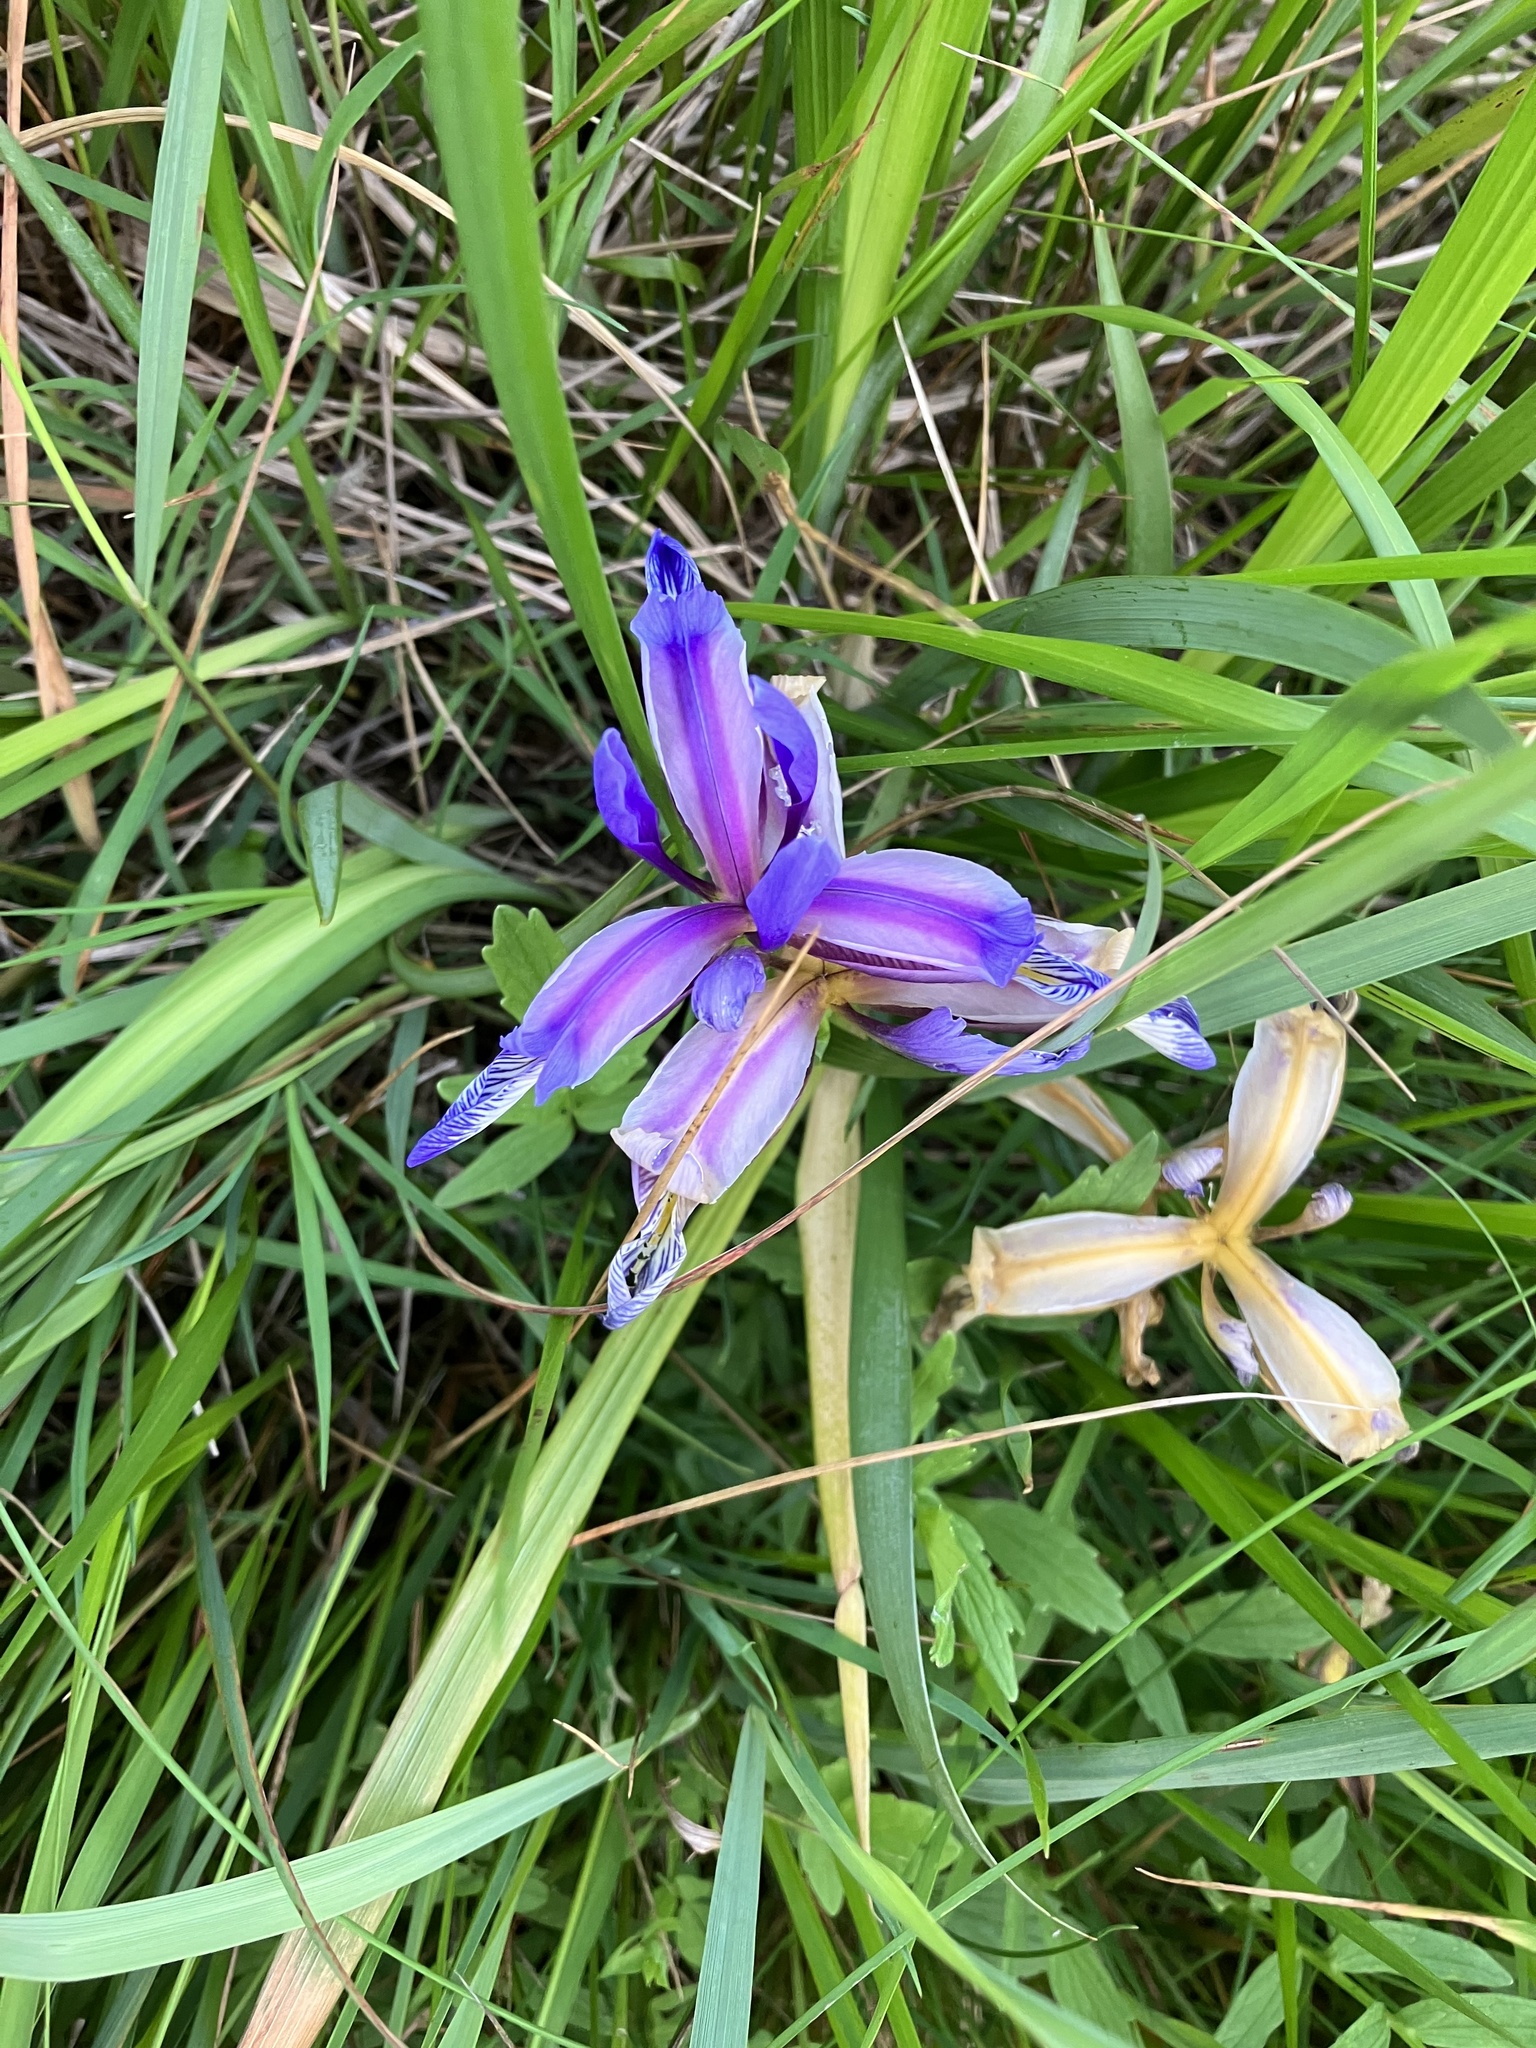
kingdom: Plantae
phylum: Tracheophyta
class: Liliopsida
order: Asparagales
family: Iridaceae
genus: Iris
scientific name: Iris graminea
